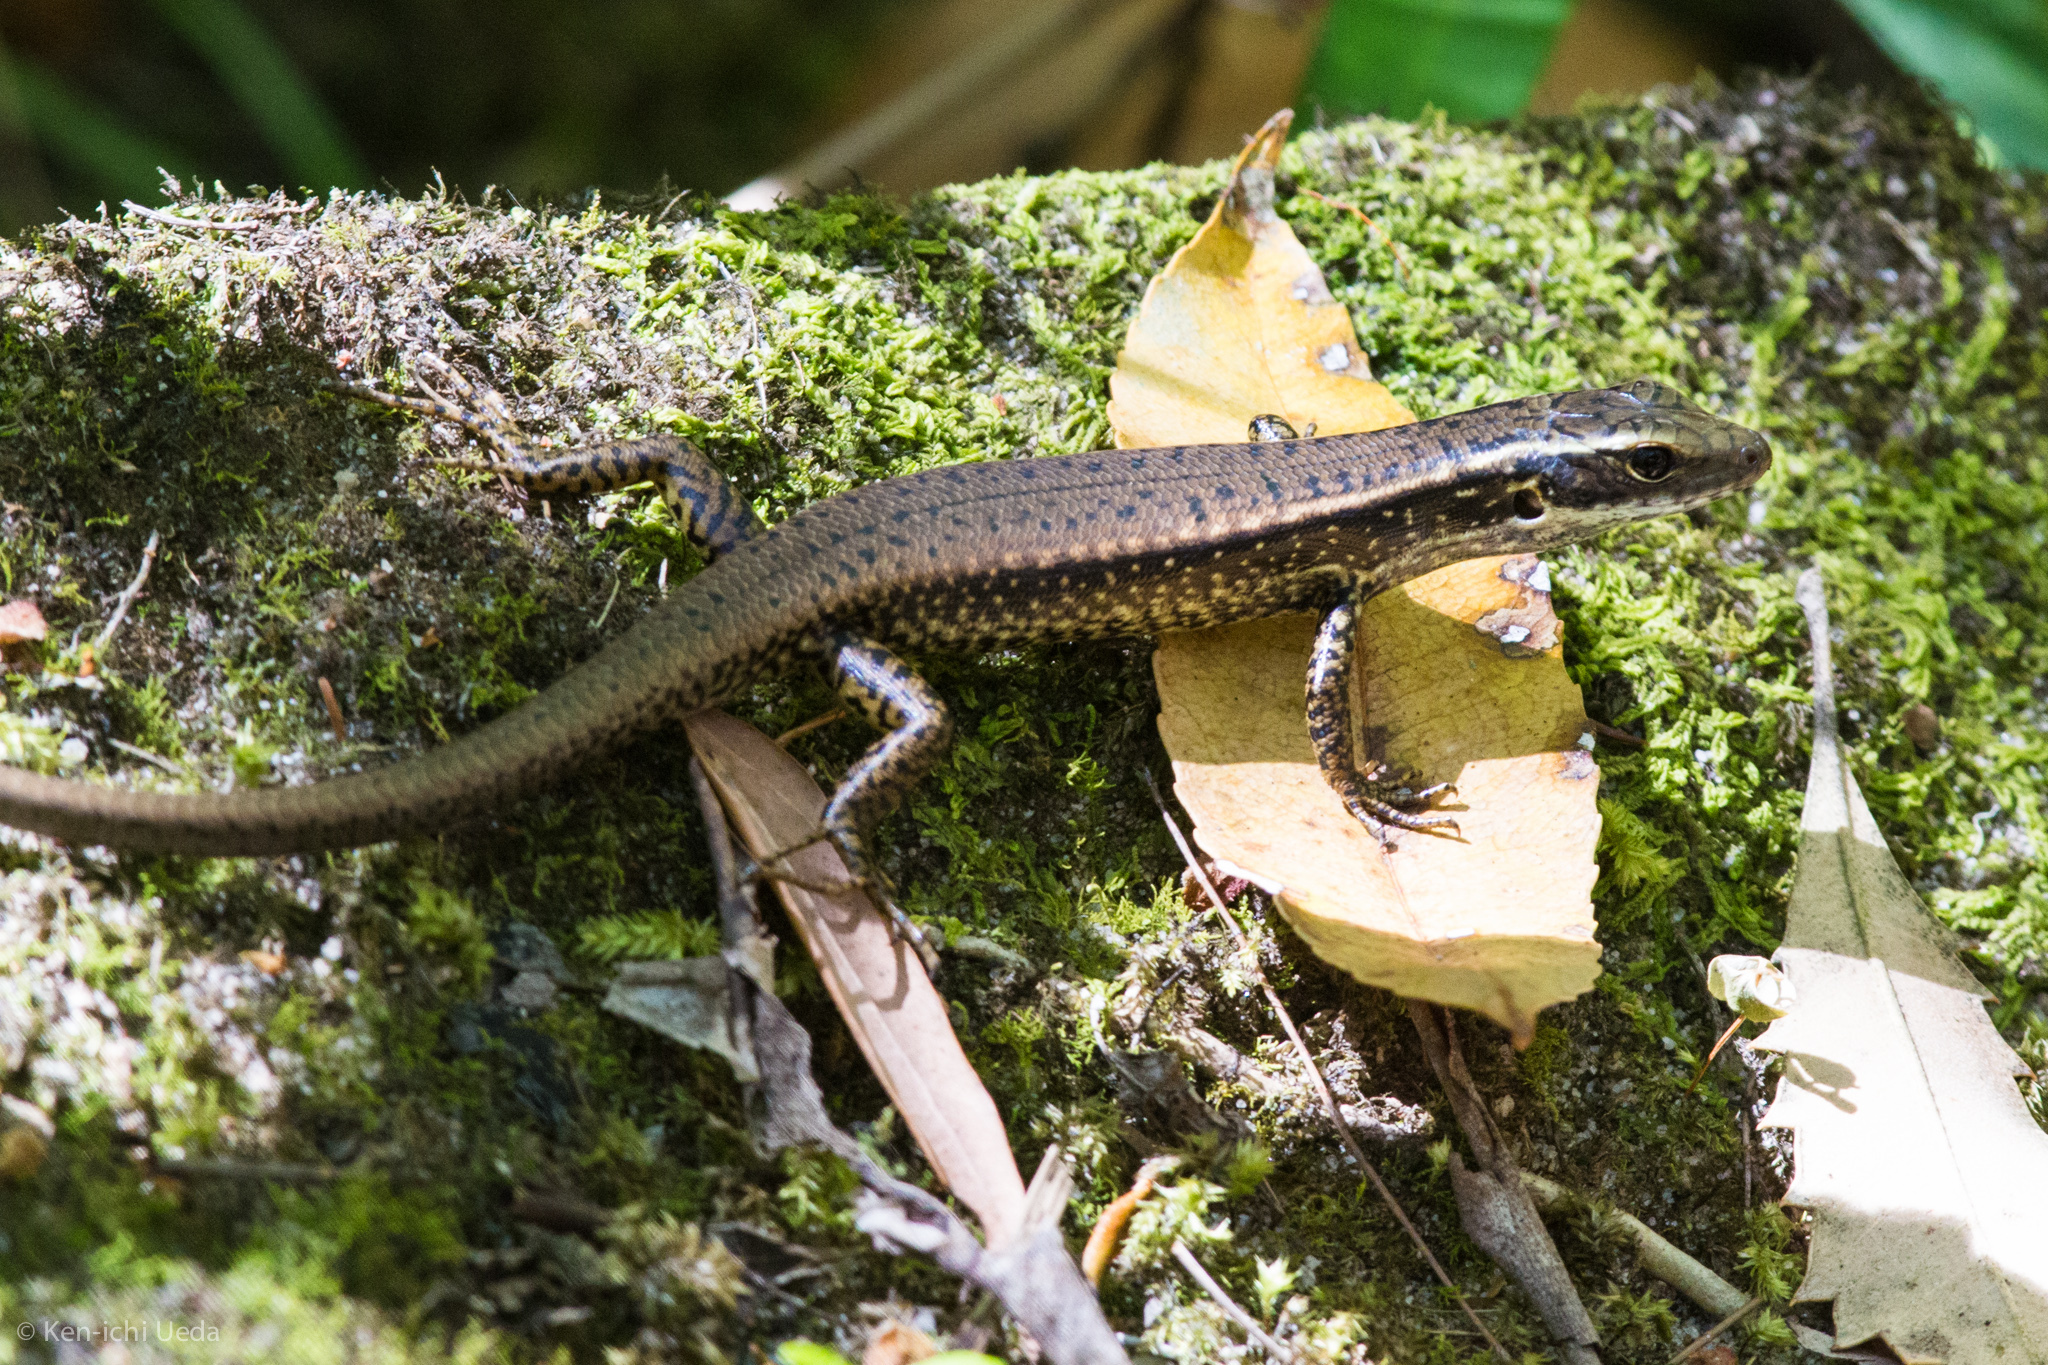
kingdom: Animalia
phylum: Chordata
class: Squamata
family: Scincidae
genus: Eulamprus
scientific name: Eulamprus quoyii
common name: Eastern water skink
